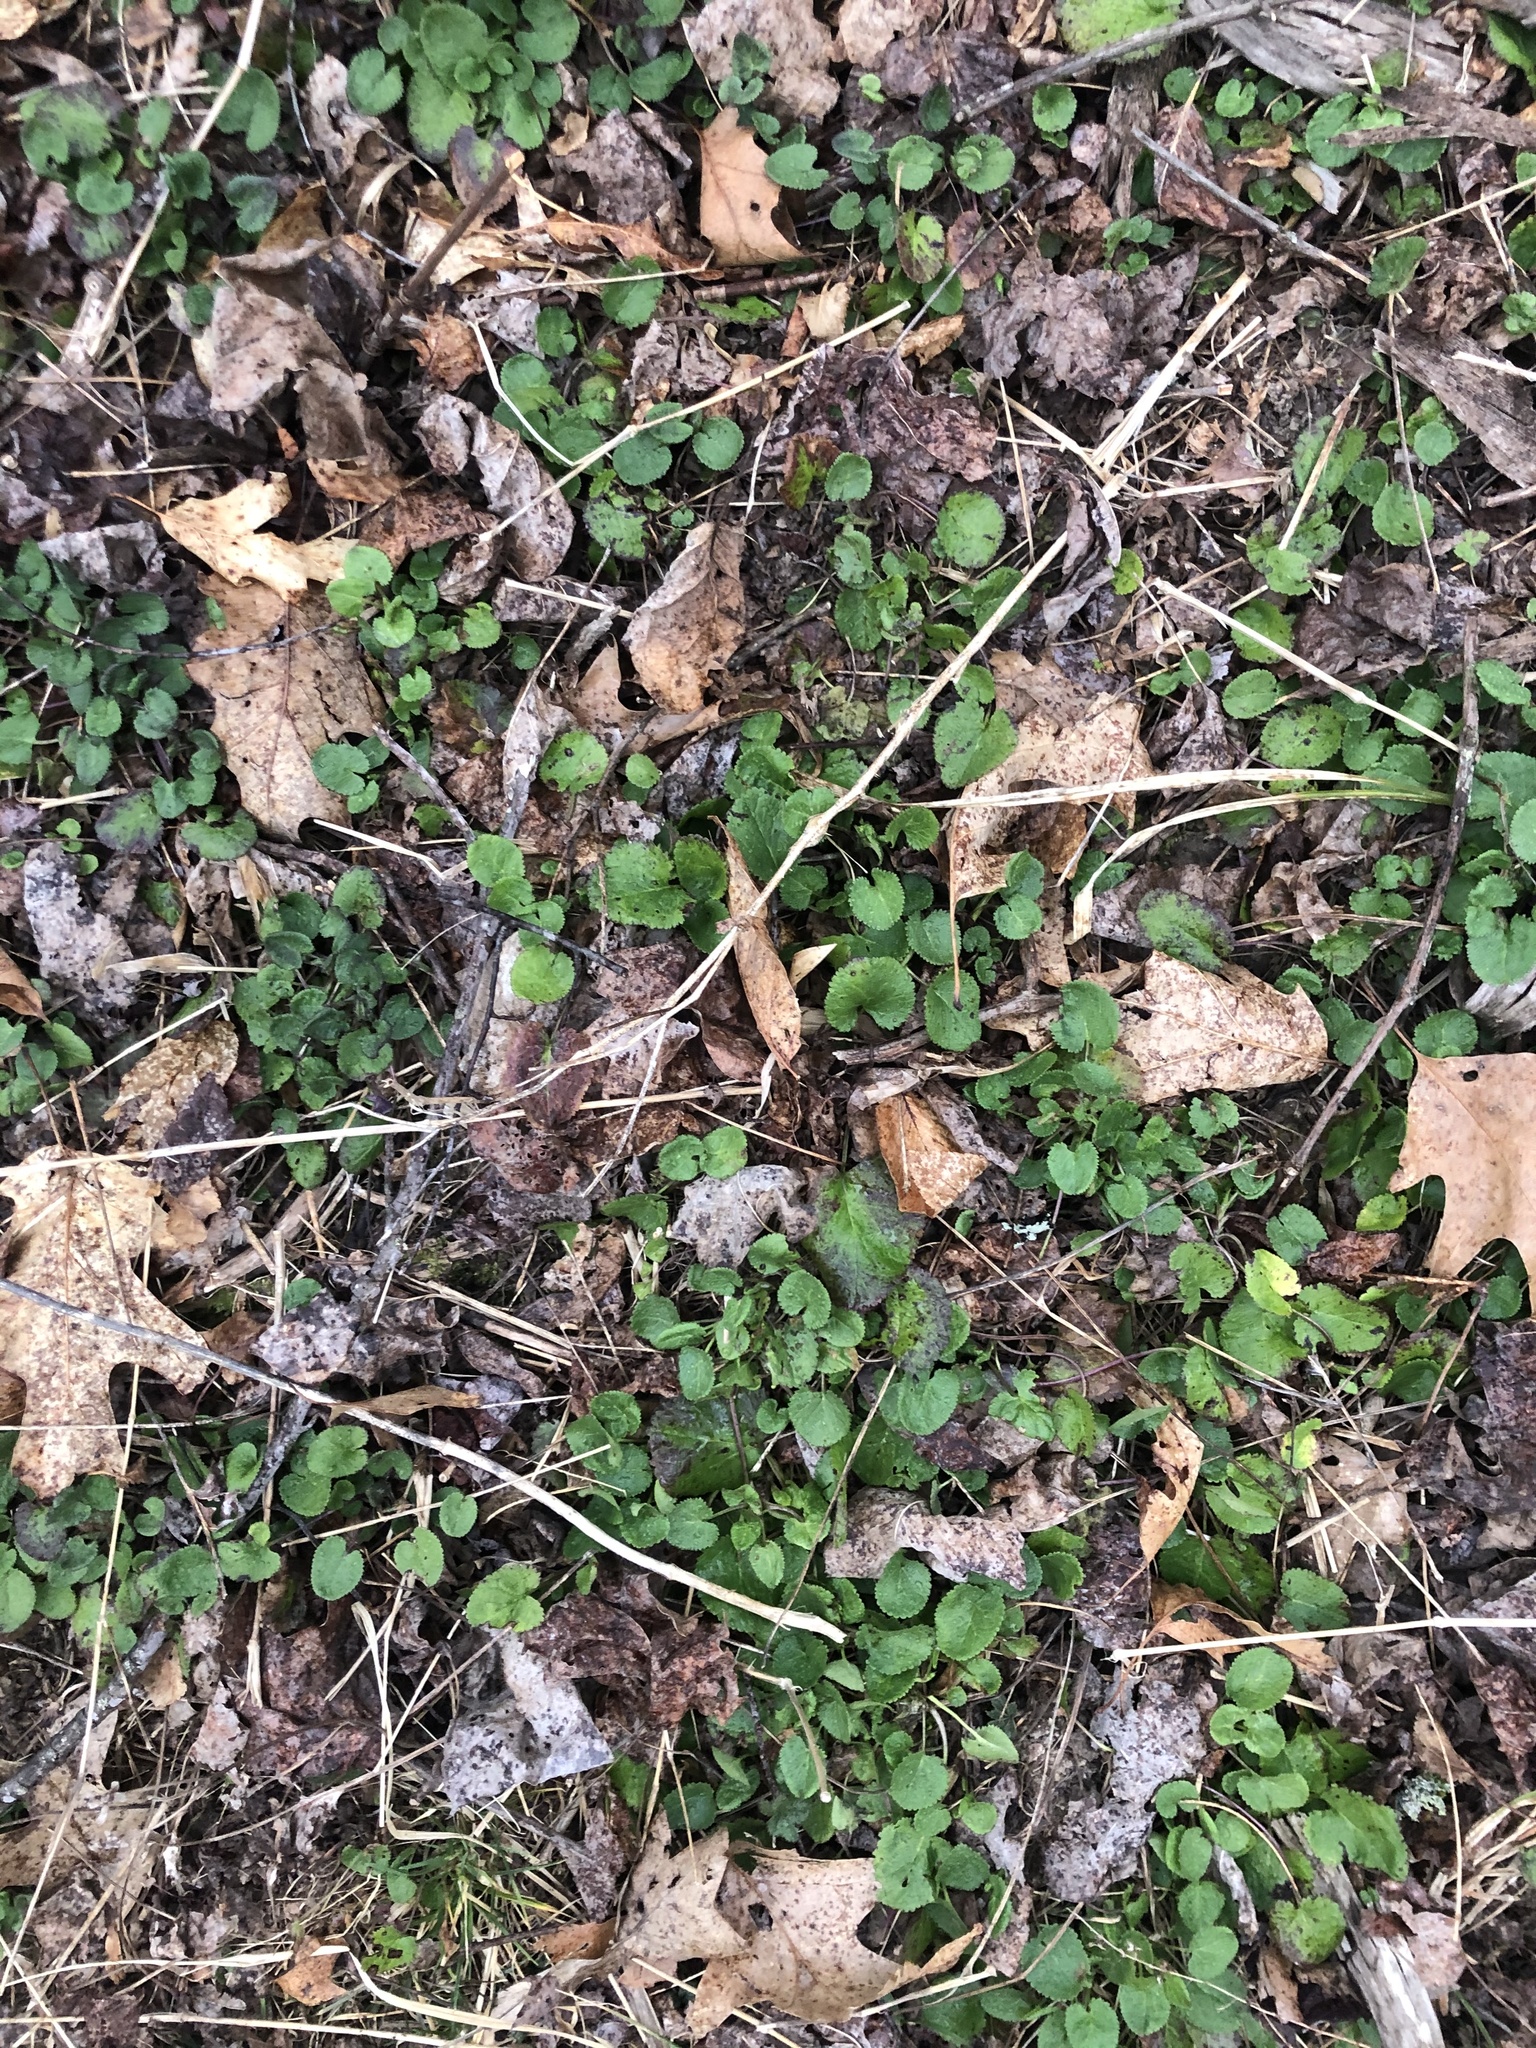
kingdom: Plantae
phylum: Tracheophyta
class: Magnoliopsida
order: Asterales
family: Asteraceae
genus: Packera
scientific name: Packera aurea
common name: Golden groundsel
